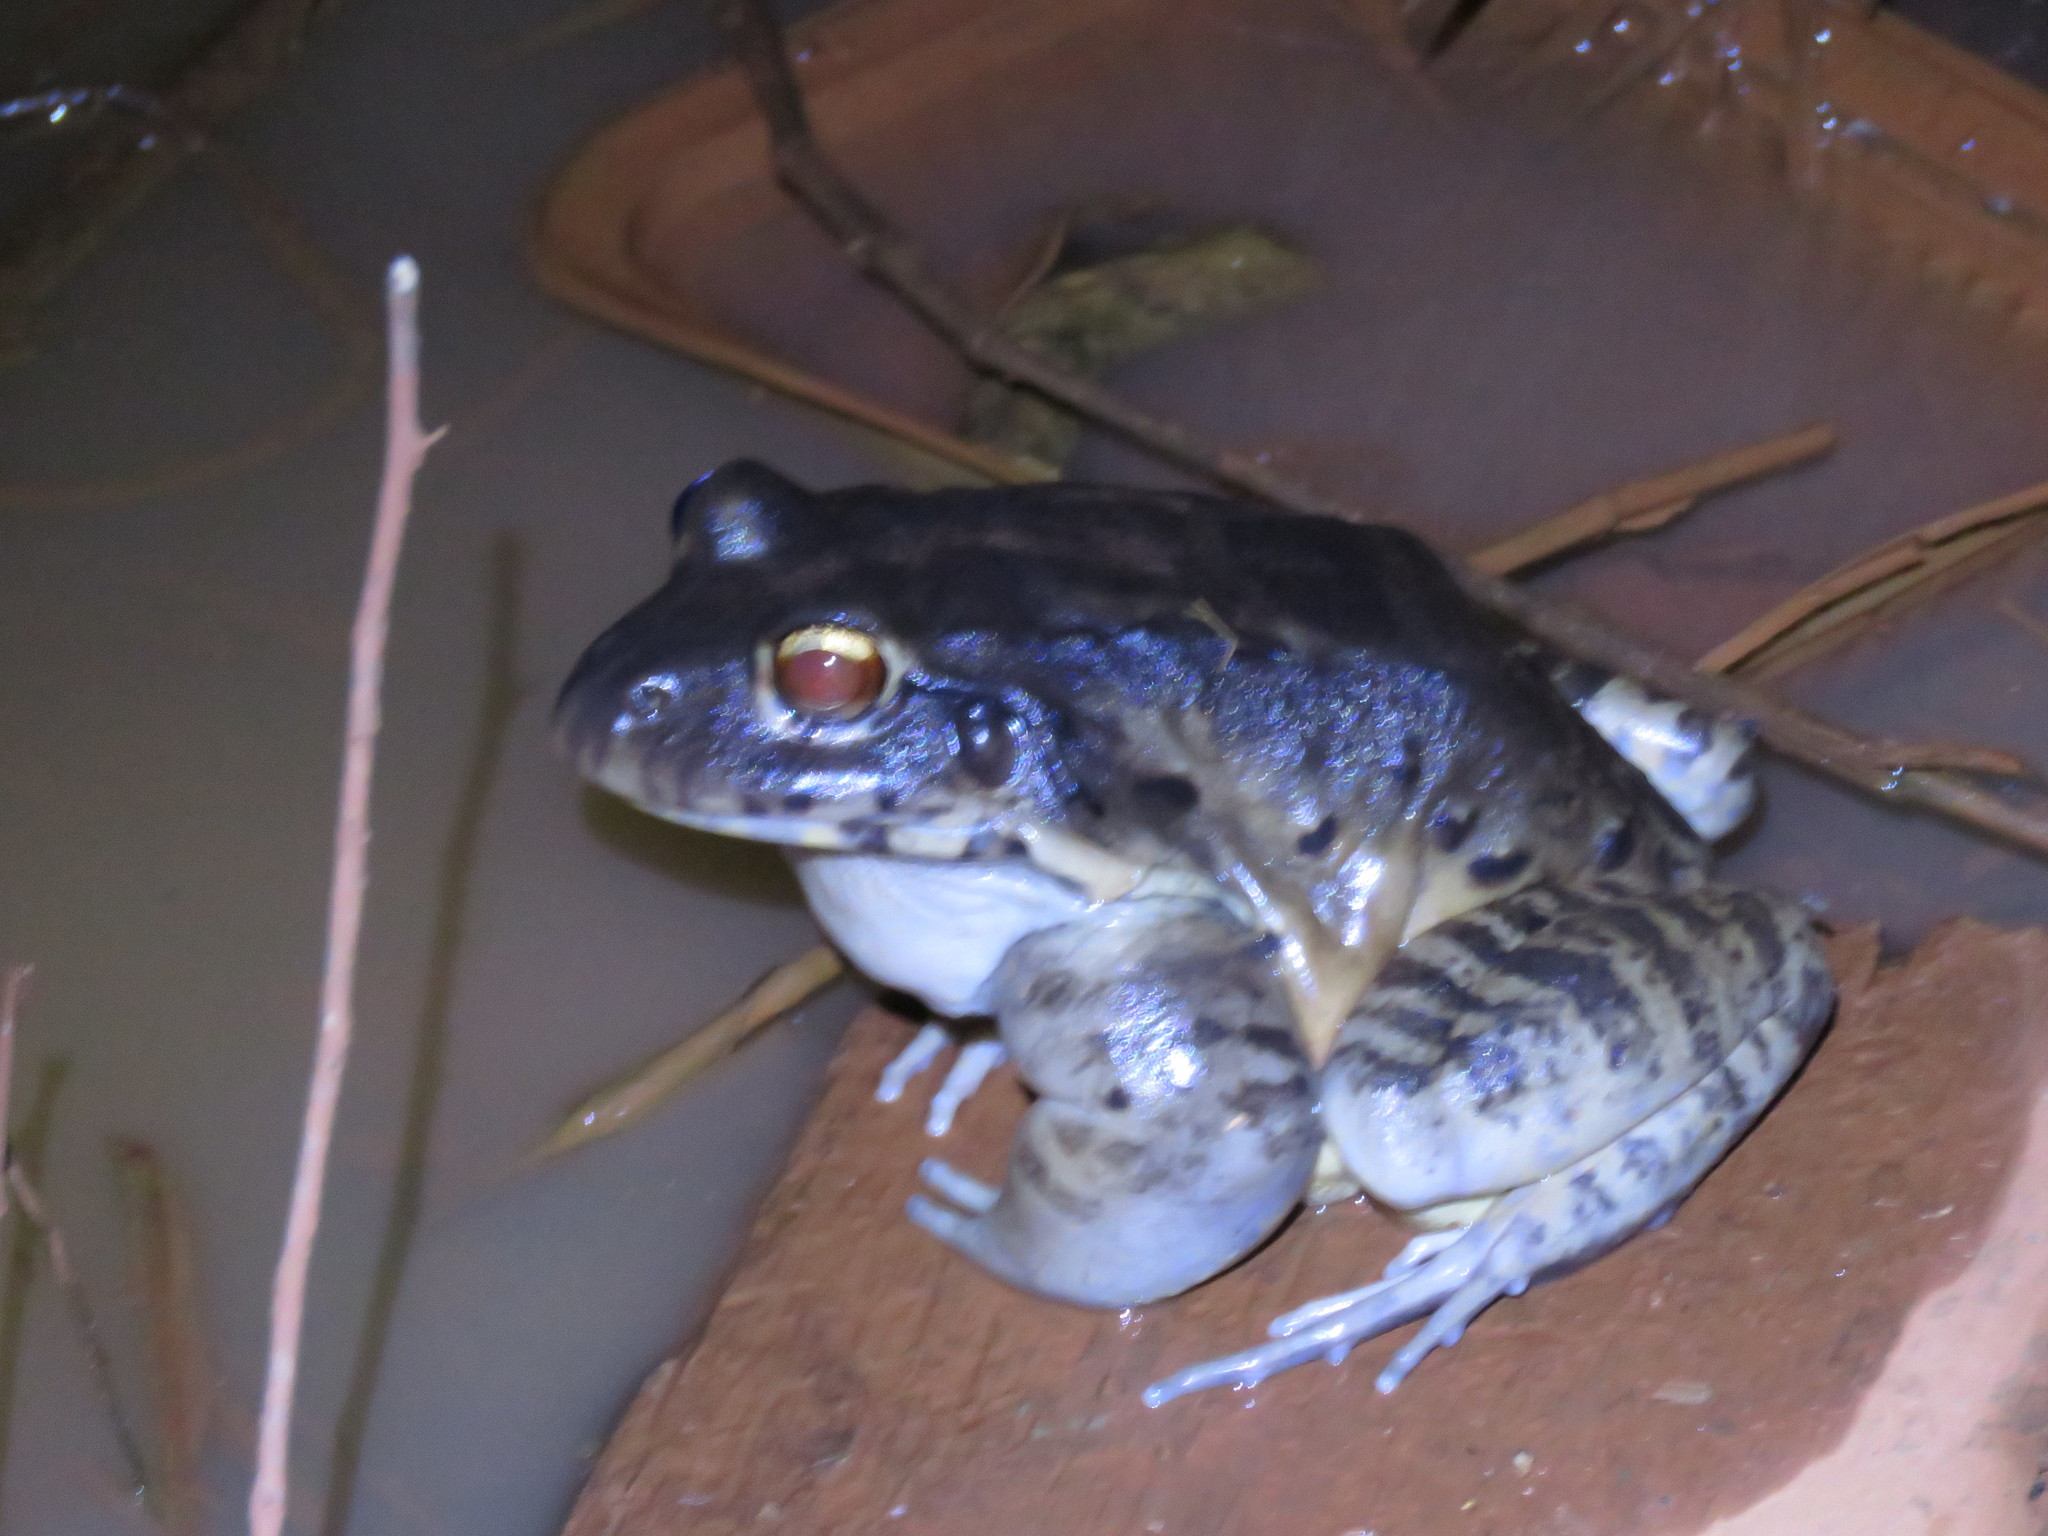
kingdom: Animalia
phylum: Chordata
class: Amphibia
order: Anura
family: Leptodactylidae
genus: Leptodactylus
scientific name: Leptodactylus vastus
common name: Northeastern pepper frog
